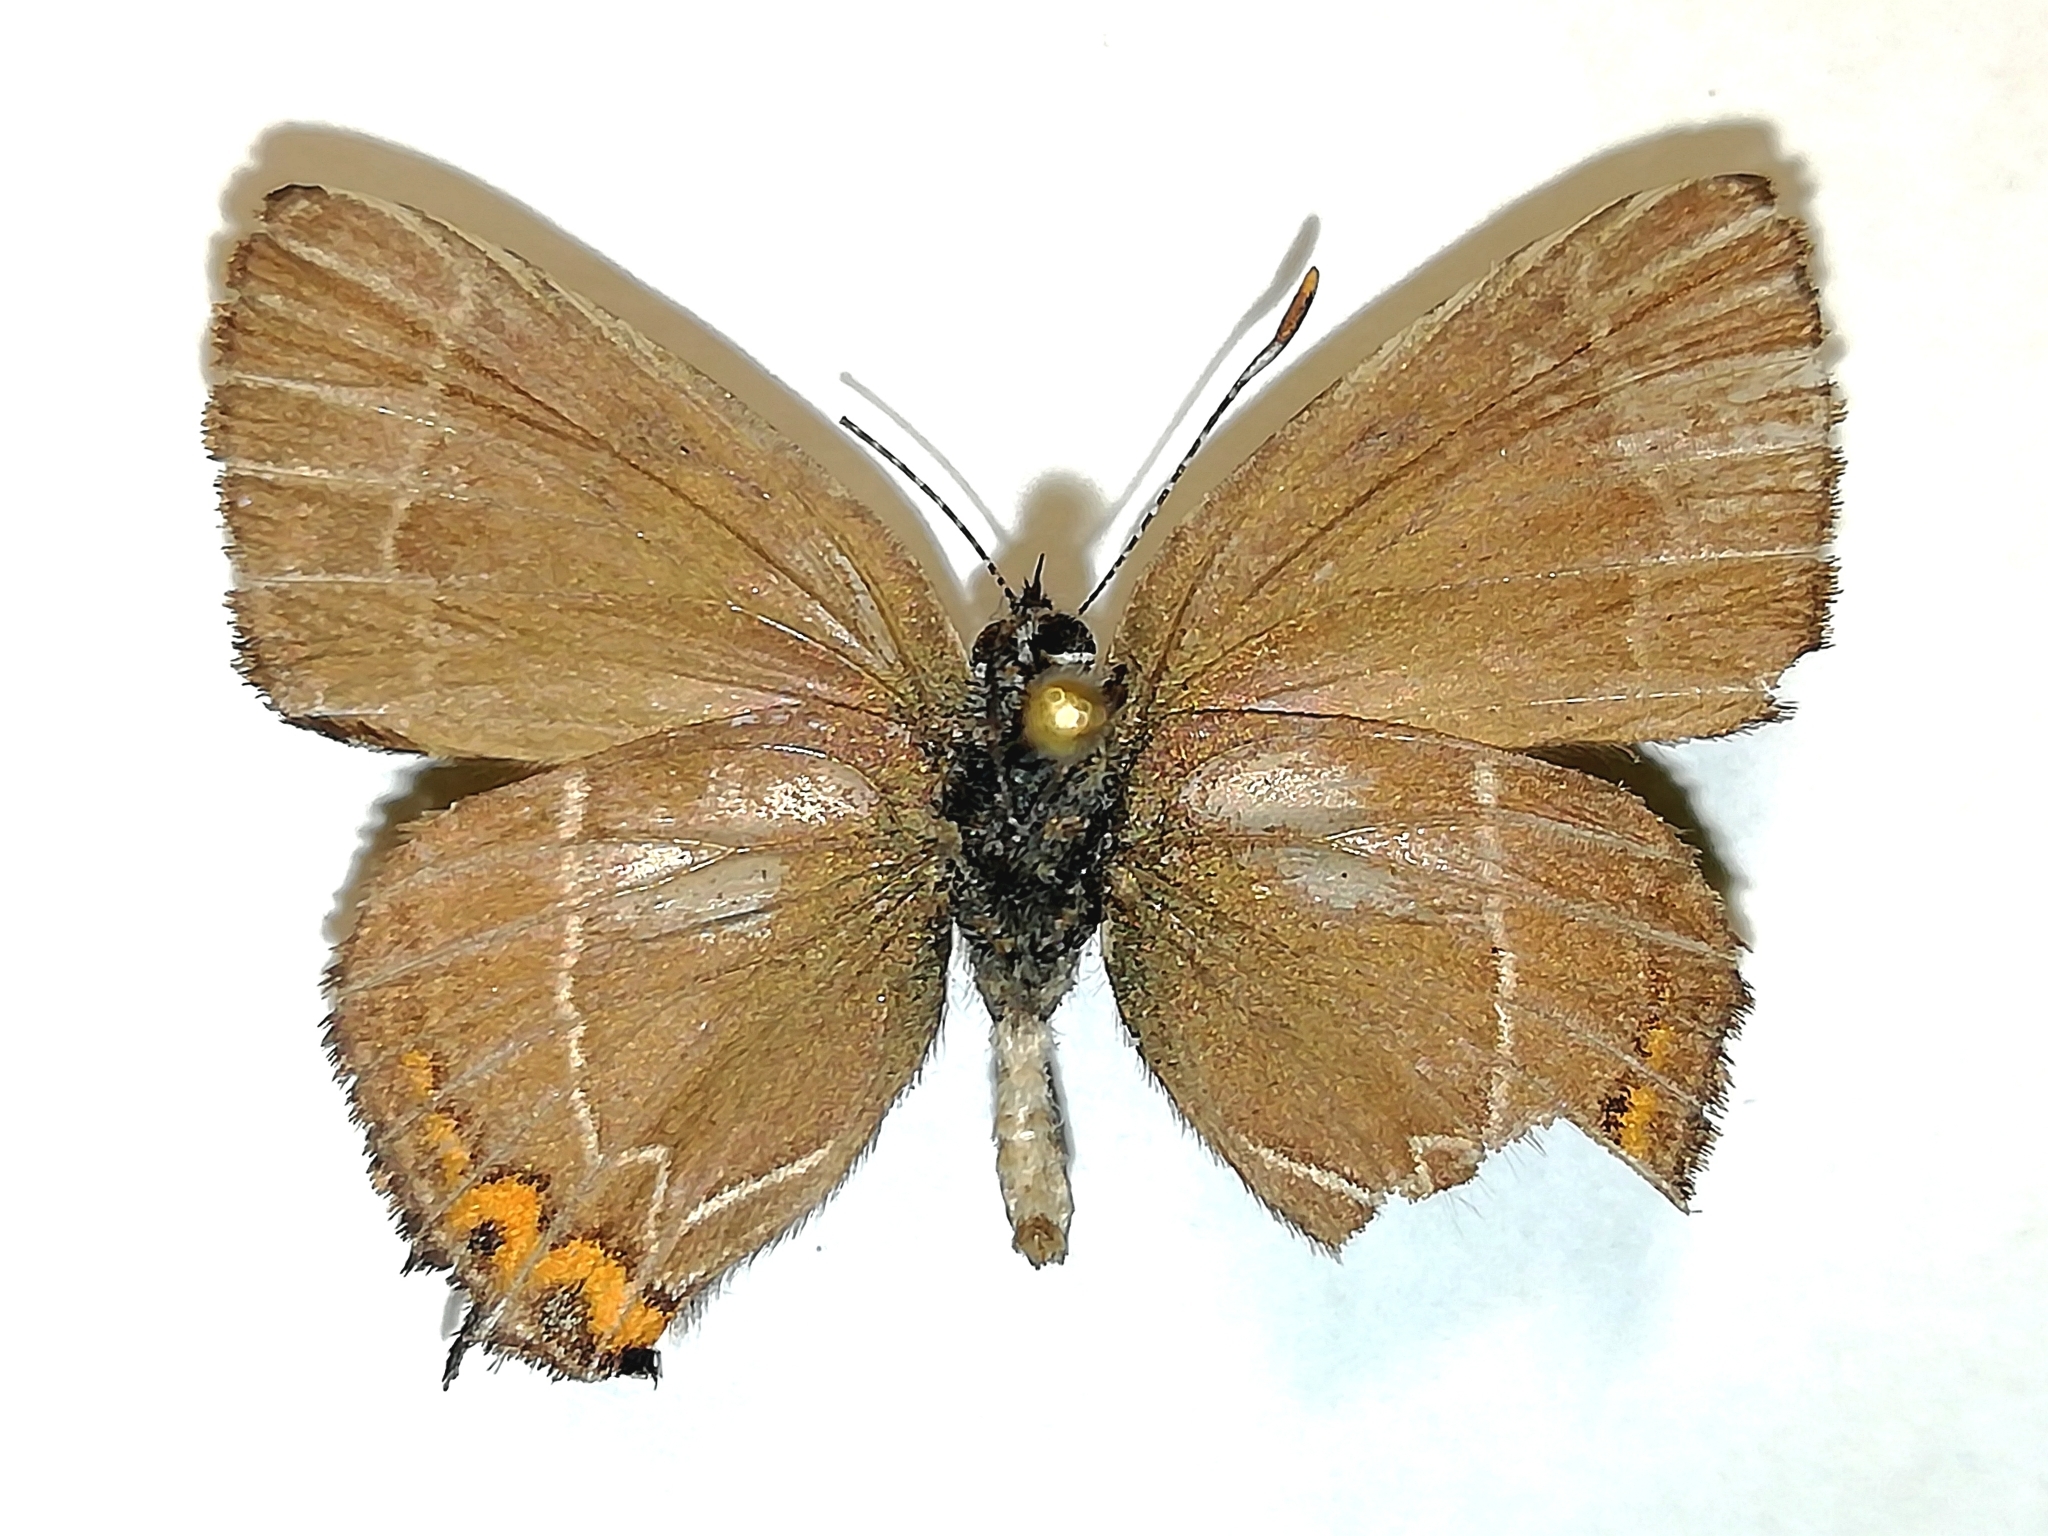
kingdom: Animalia
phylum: Arthropoda
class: Insecta
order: Lepidoptera
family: Lycaenidae
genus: Satyrium
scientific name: Satyrium w-album
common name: White-letter hairstreak
